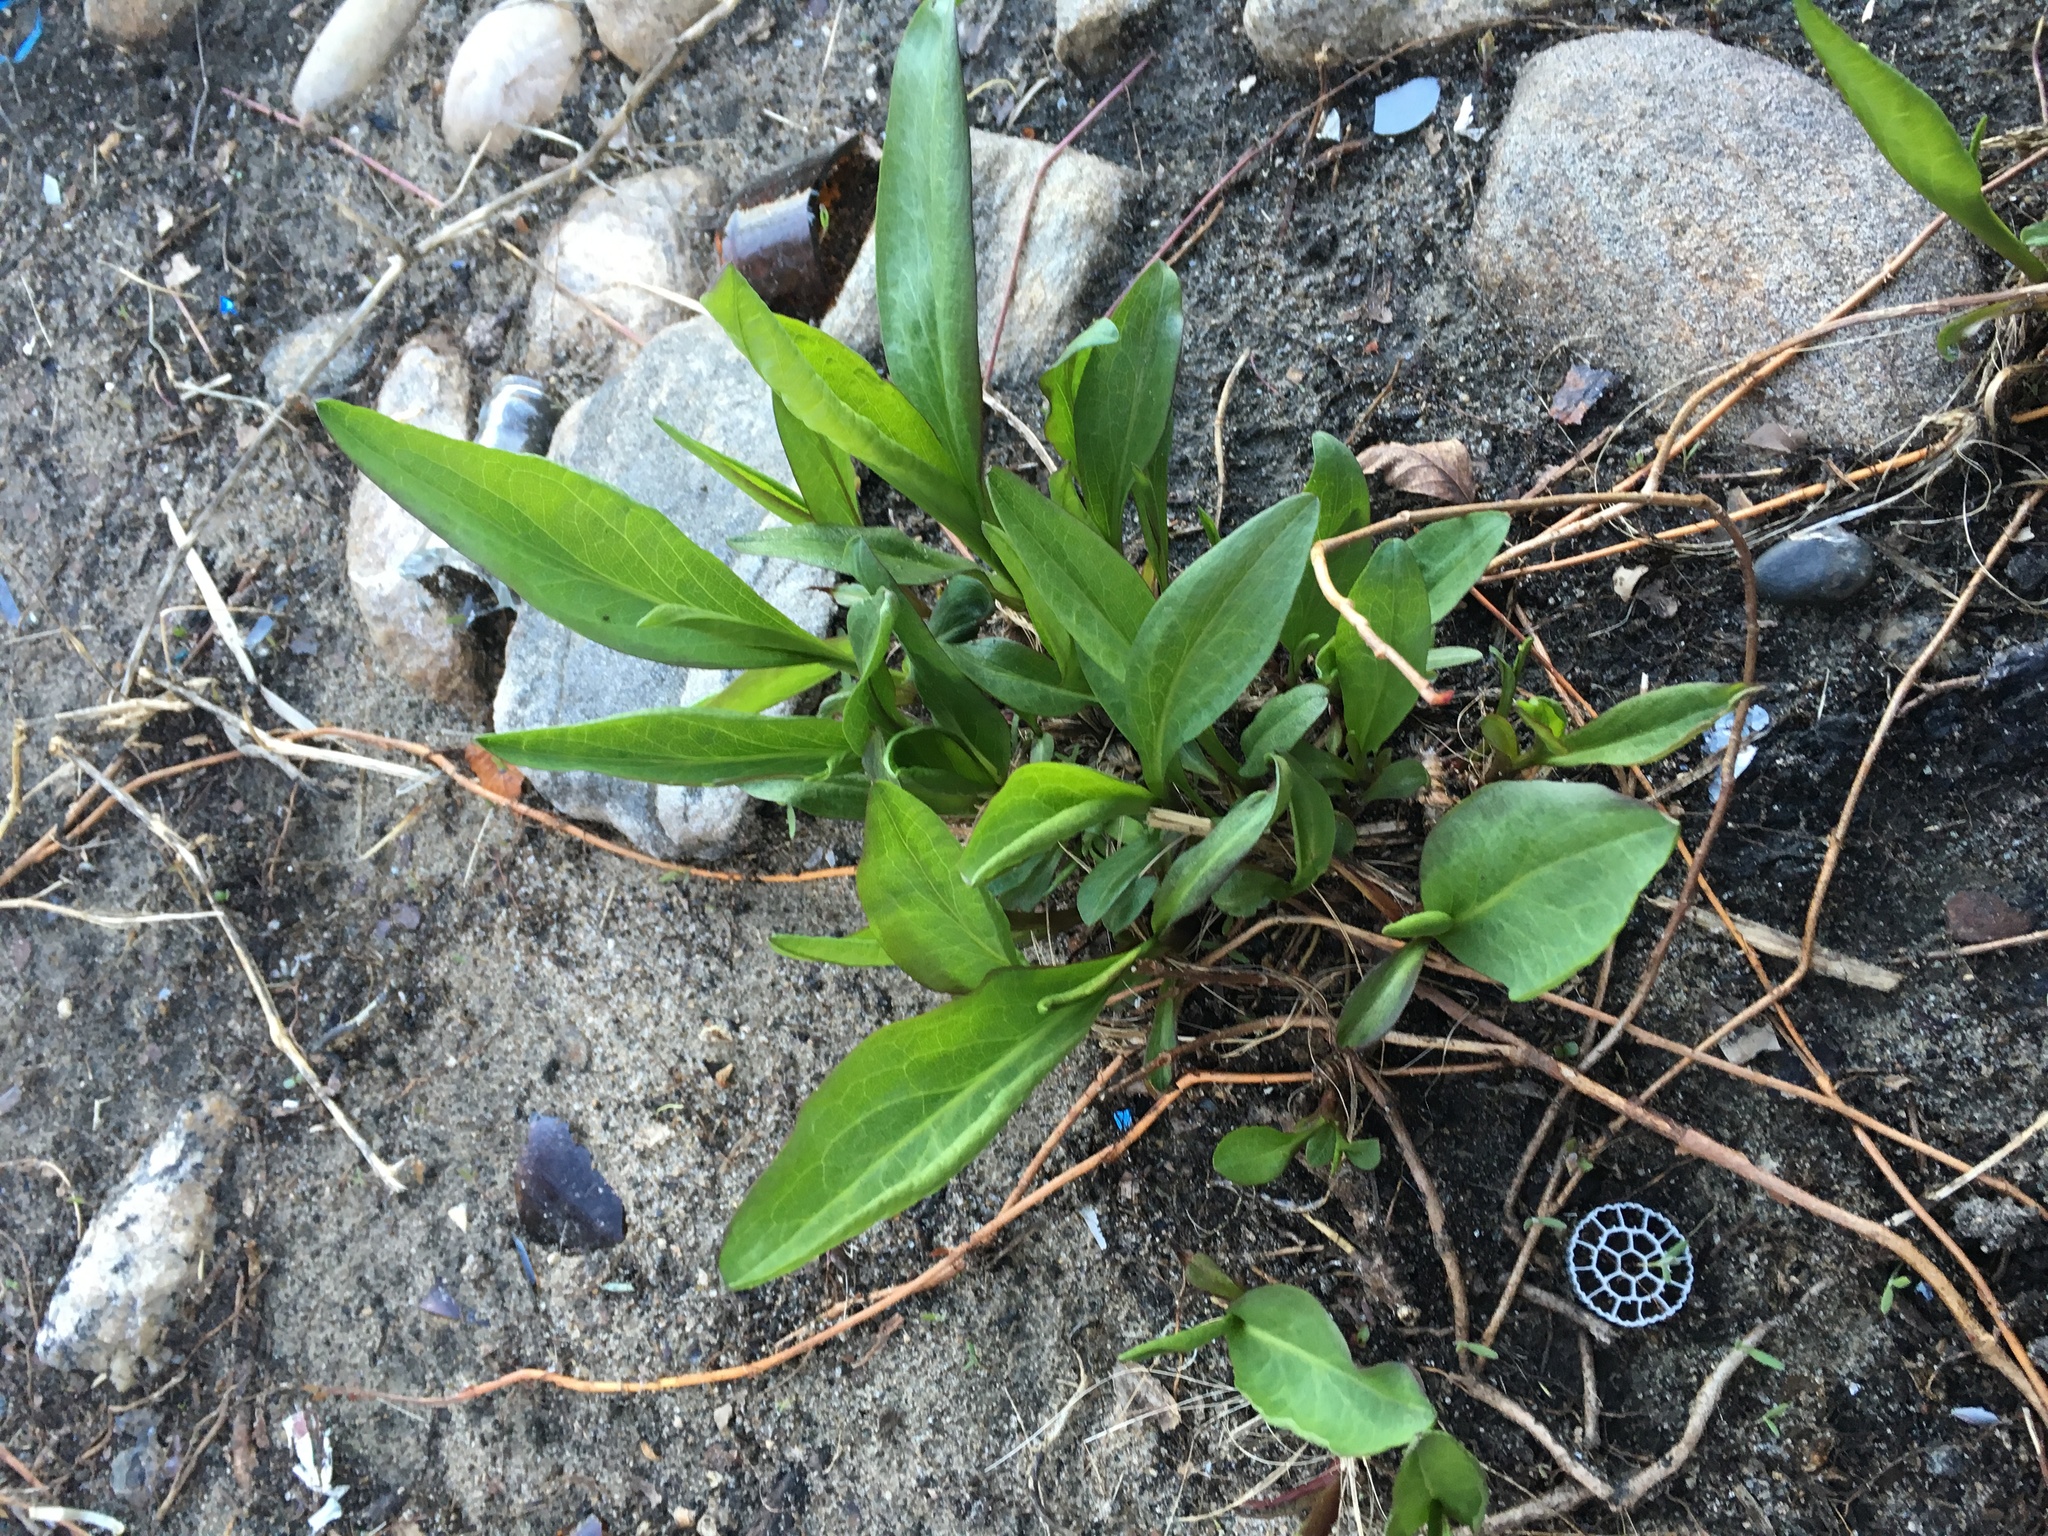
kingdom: Plantae
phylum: Tracheophyta
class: Magnoliopsida
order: Asterales
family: Asteraceae
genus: Solidago
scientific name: Solidago sempervirens
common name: Salt-marsh goldenrod
